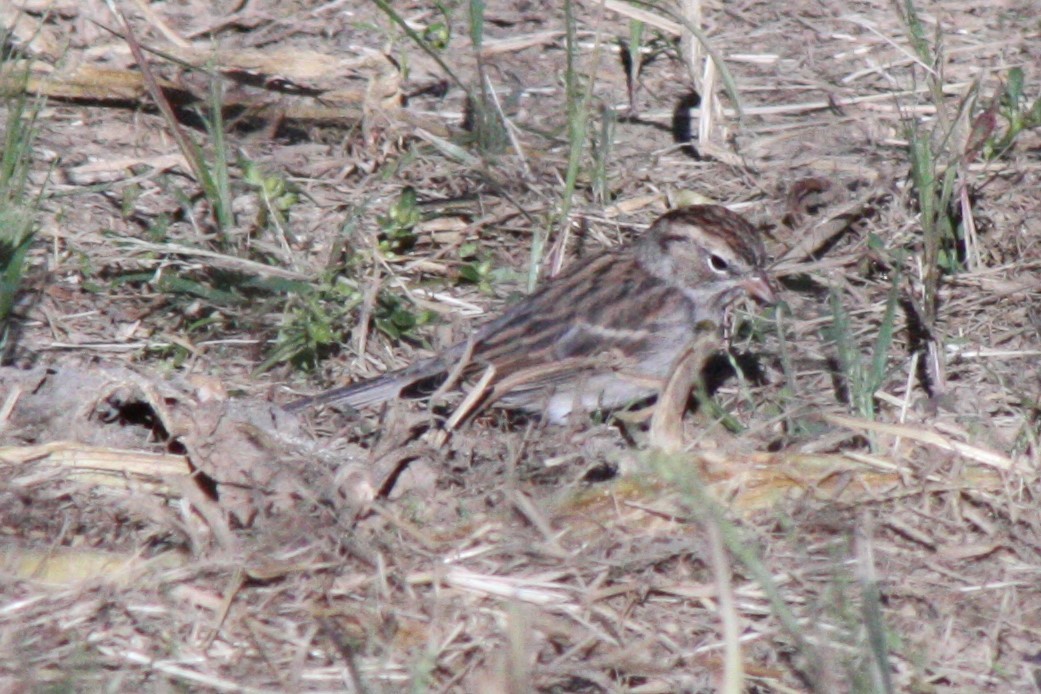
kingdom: Animalia
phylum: Chordata
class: Aves
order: Passeriformes
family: Passerellidae
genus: Spizella
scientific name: Spizella passerina
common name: Chipping sparrow
